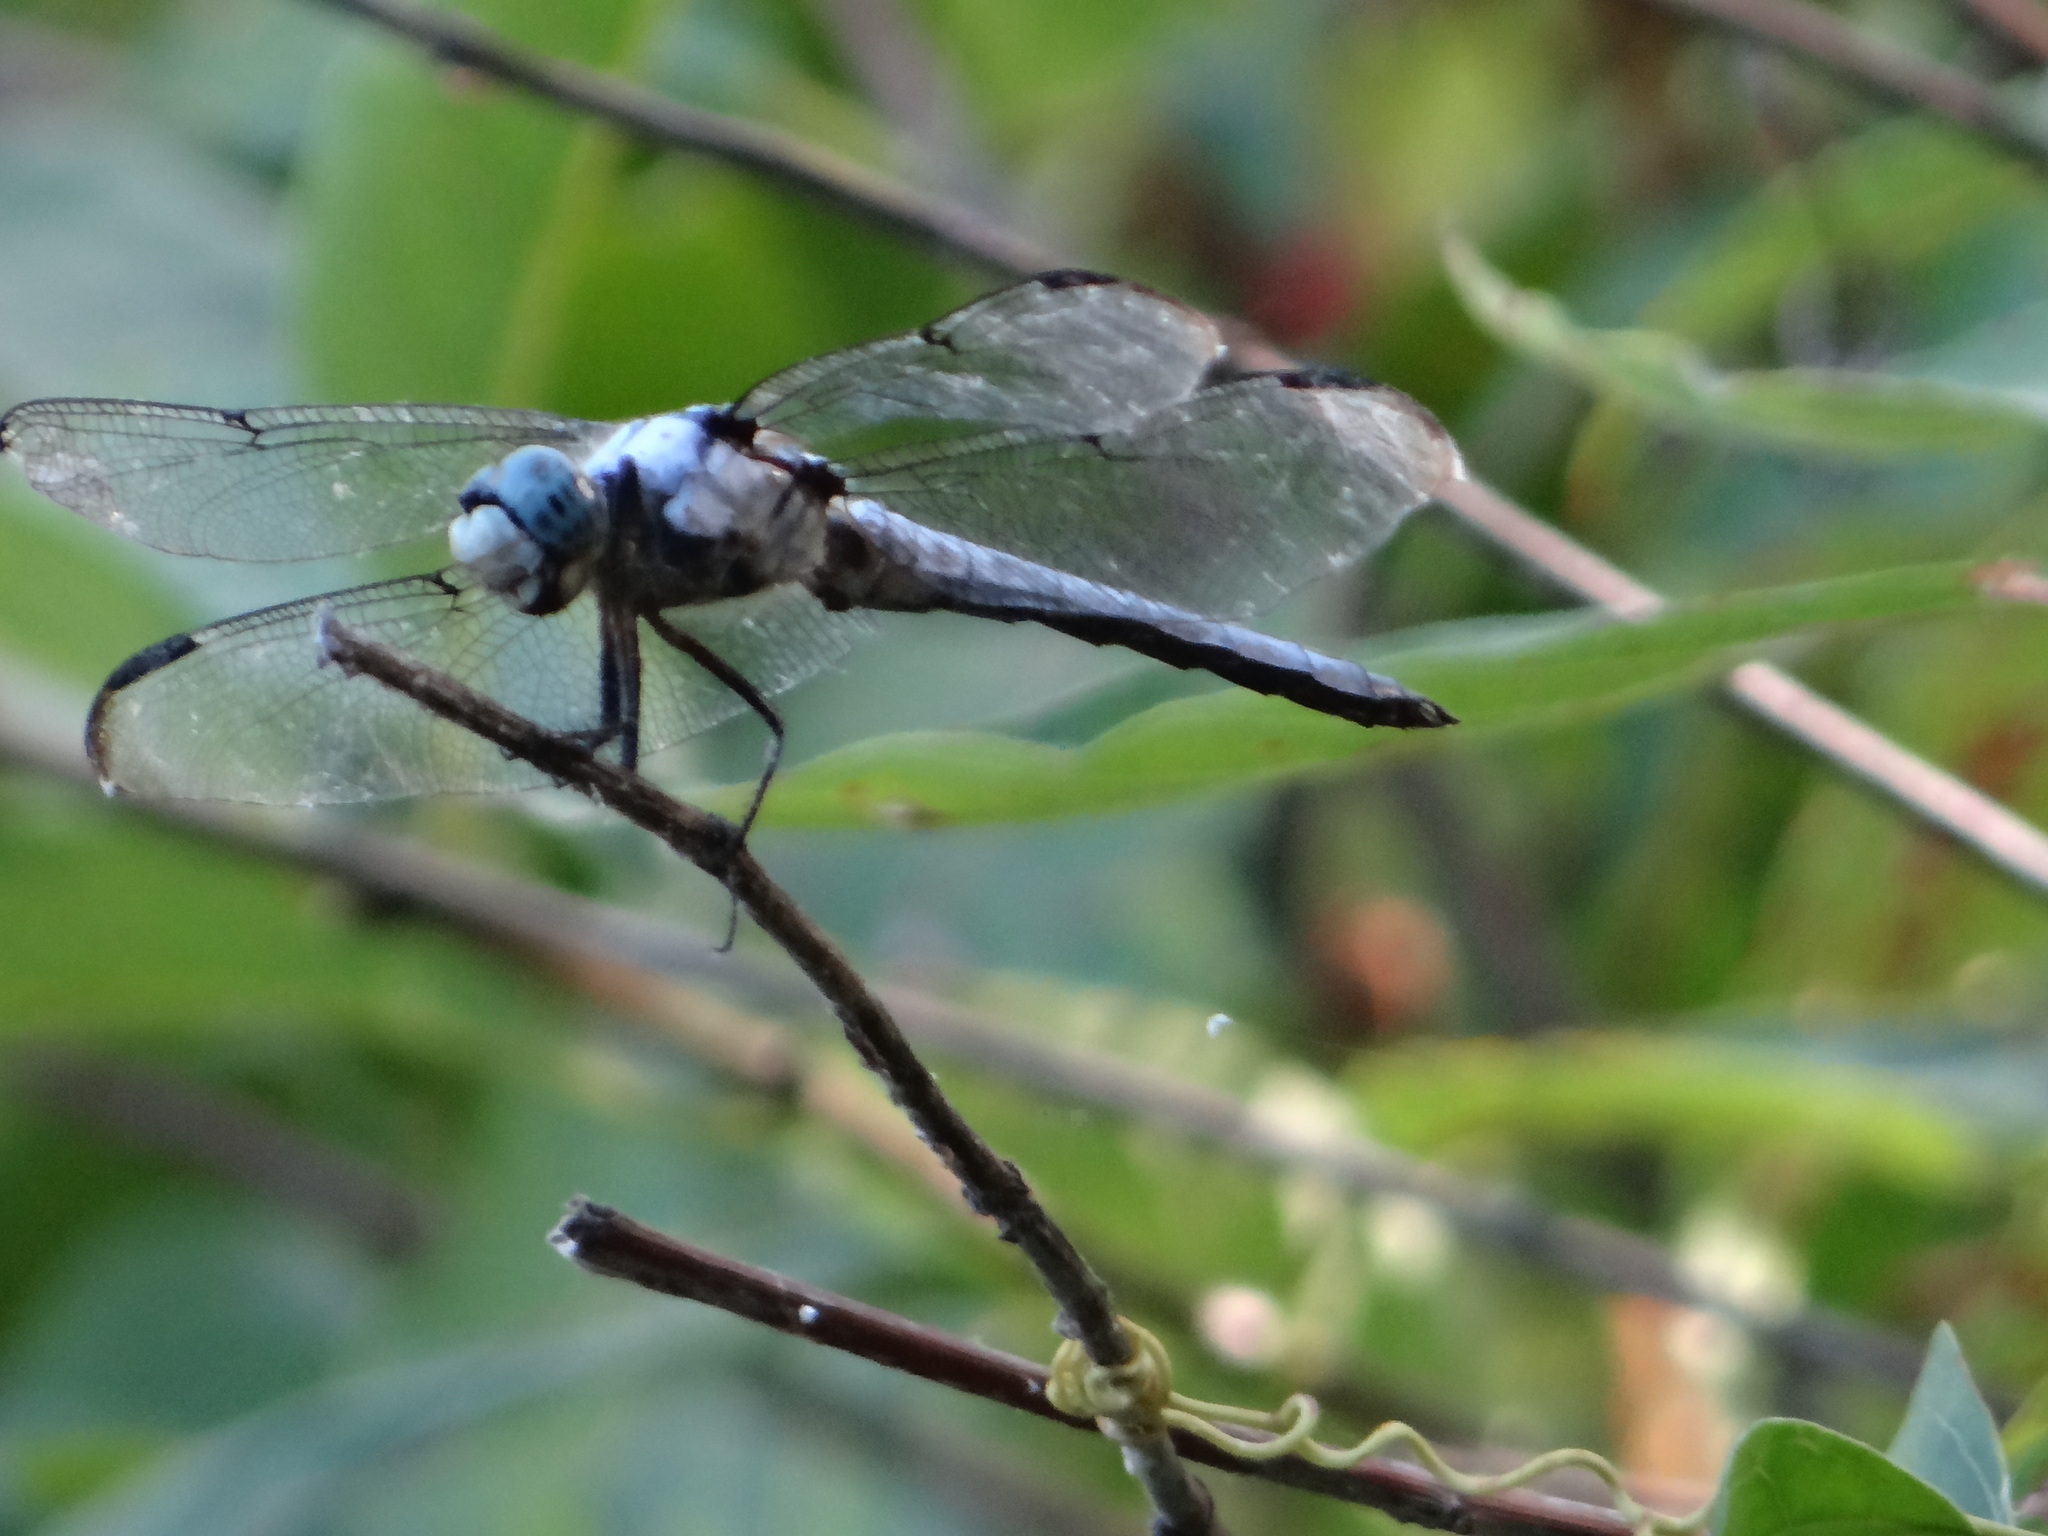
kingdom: Animalia
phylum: Arthropoda
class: Insecta
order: Odonata
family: Libellulidae
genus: Libellula
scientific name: Libellula vibrans
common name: Great blue skimmer
